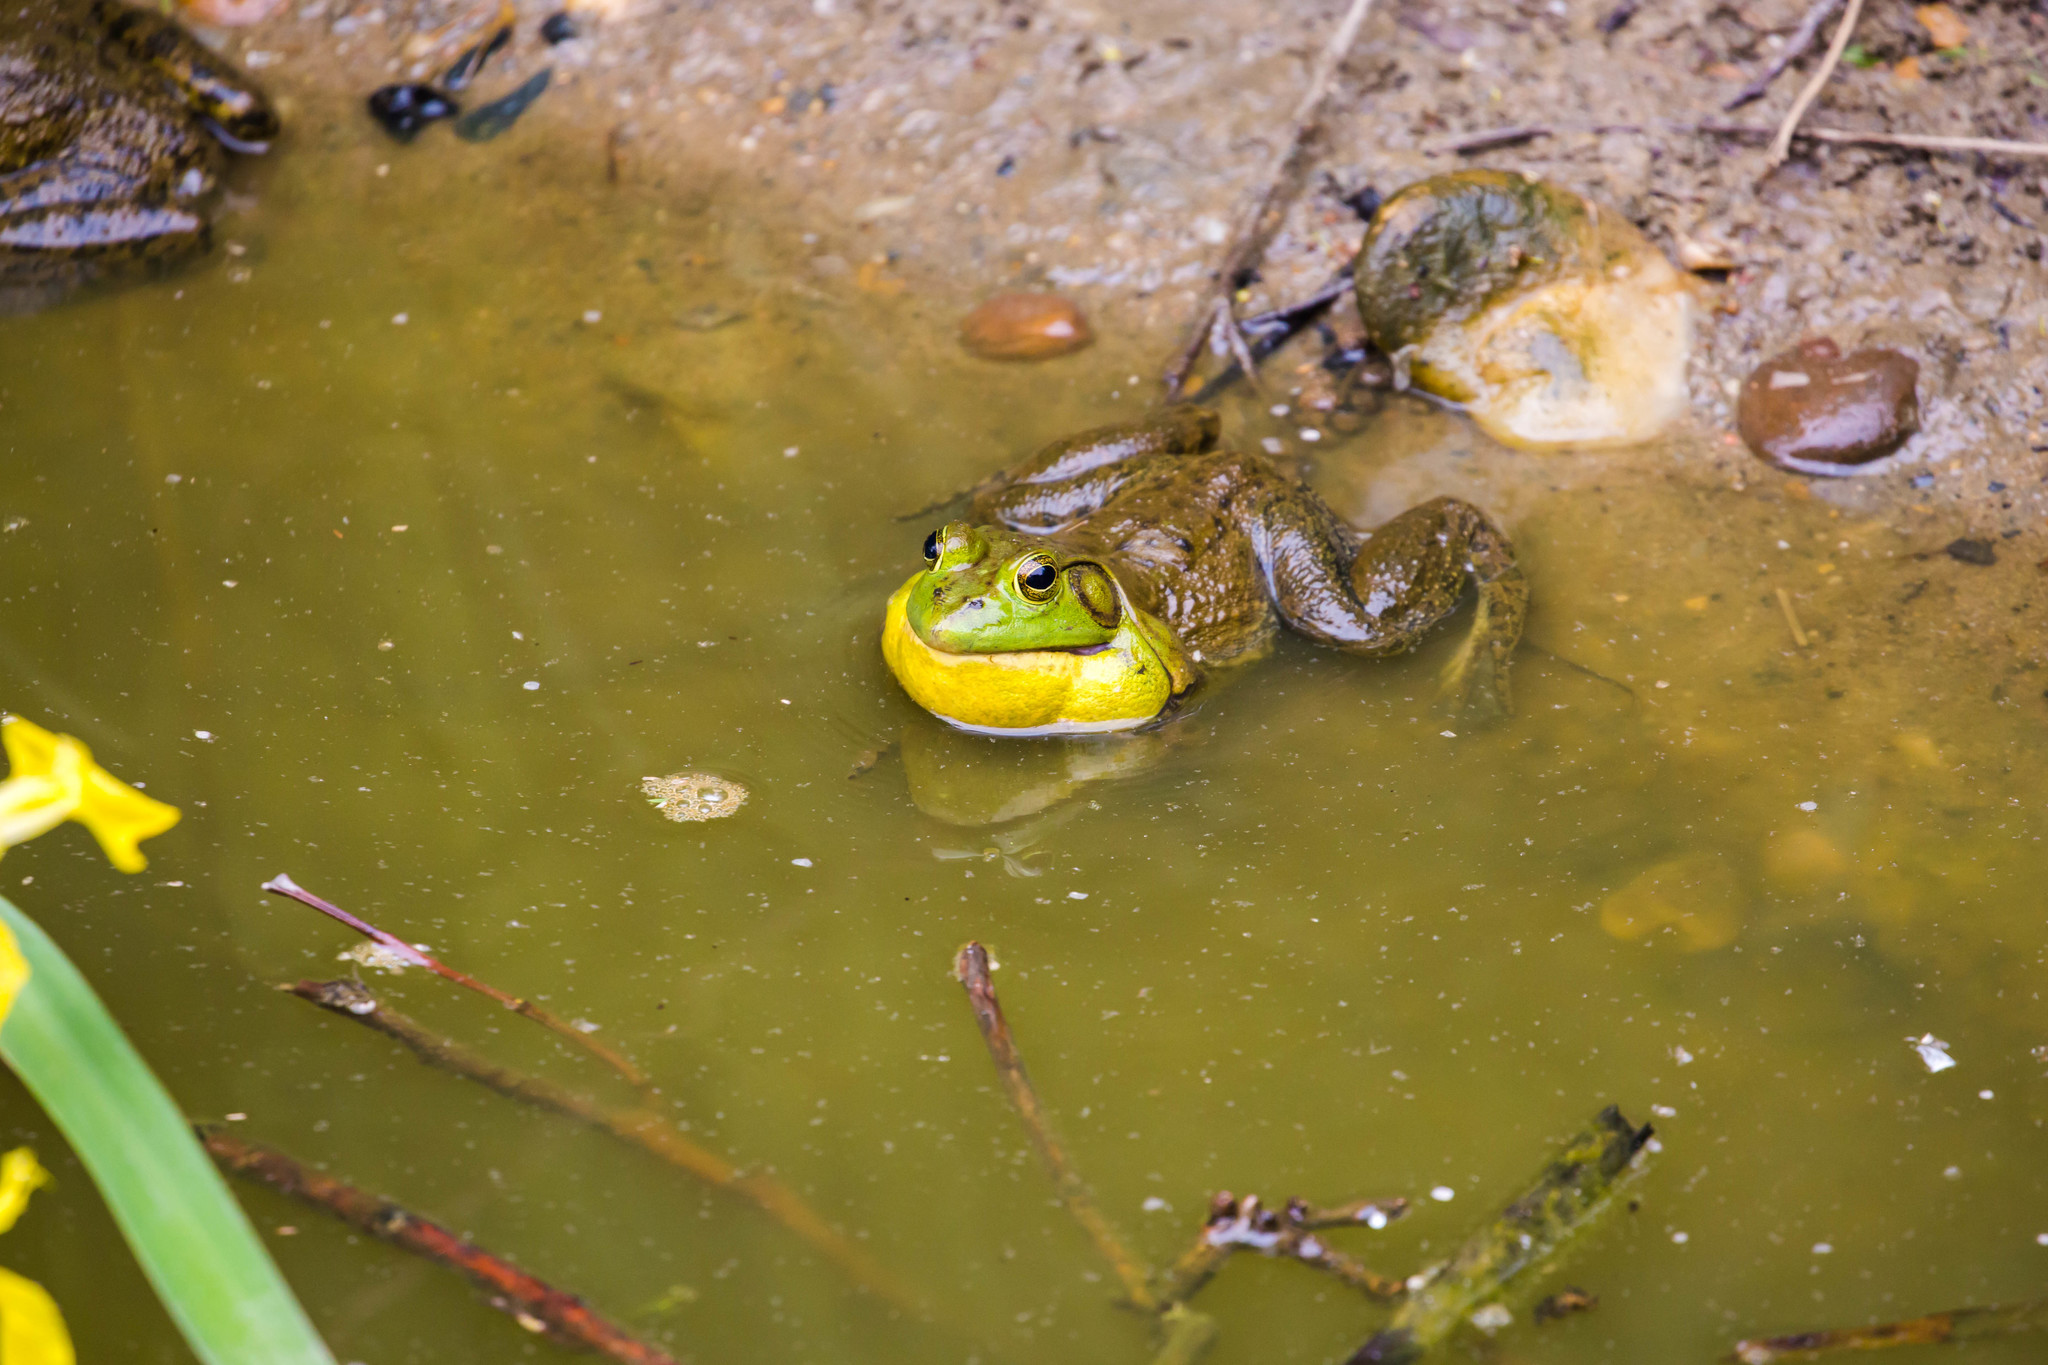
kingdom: Animalia
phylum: Chordata
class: Amphibia
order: Anura
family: Ranidae
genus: Lithobates
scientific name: Lithobates catesbeianus
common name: American bullfrog
